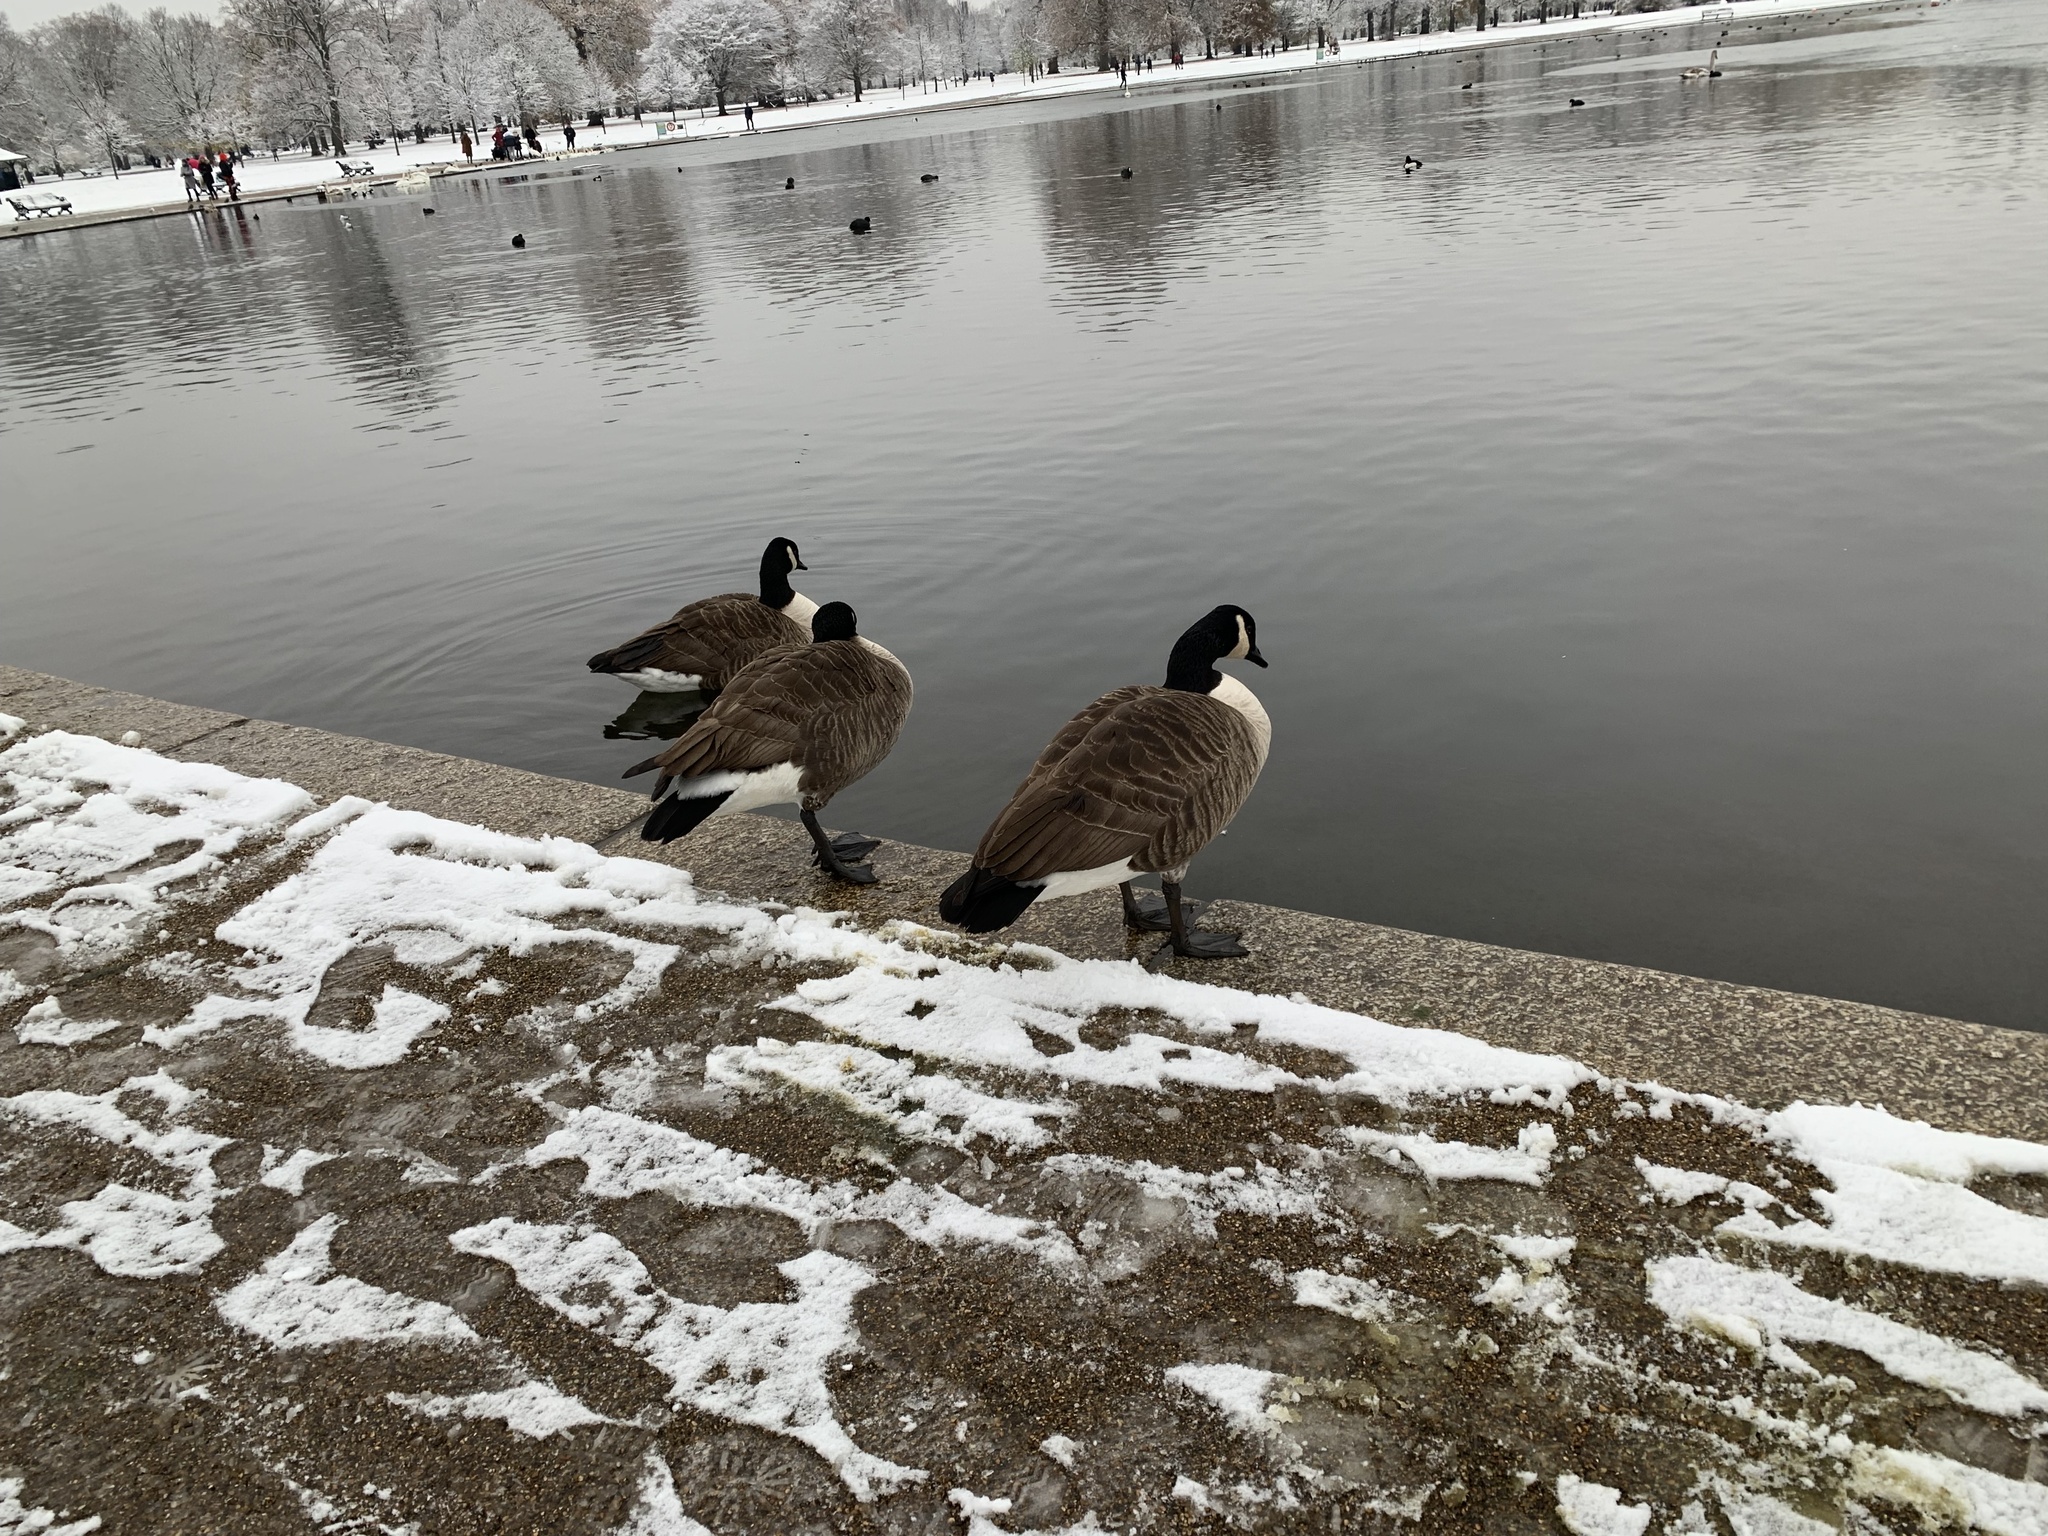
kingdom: Animalia
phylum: Chordata
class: Aves
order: Anseriformes
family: Anatidae
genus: Branta
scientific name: Branta canadensis
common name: Canada goose
